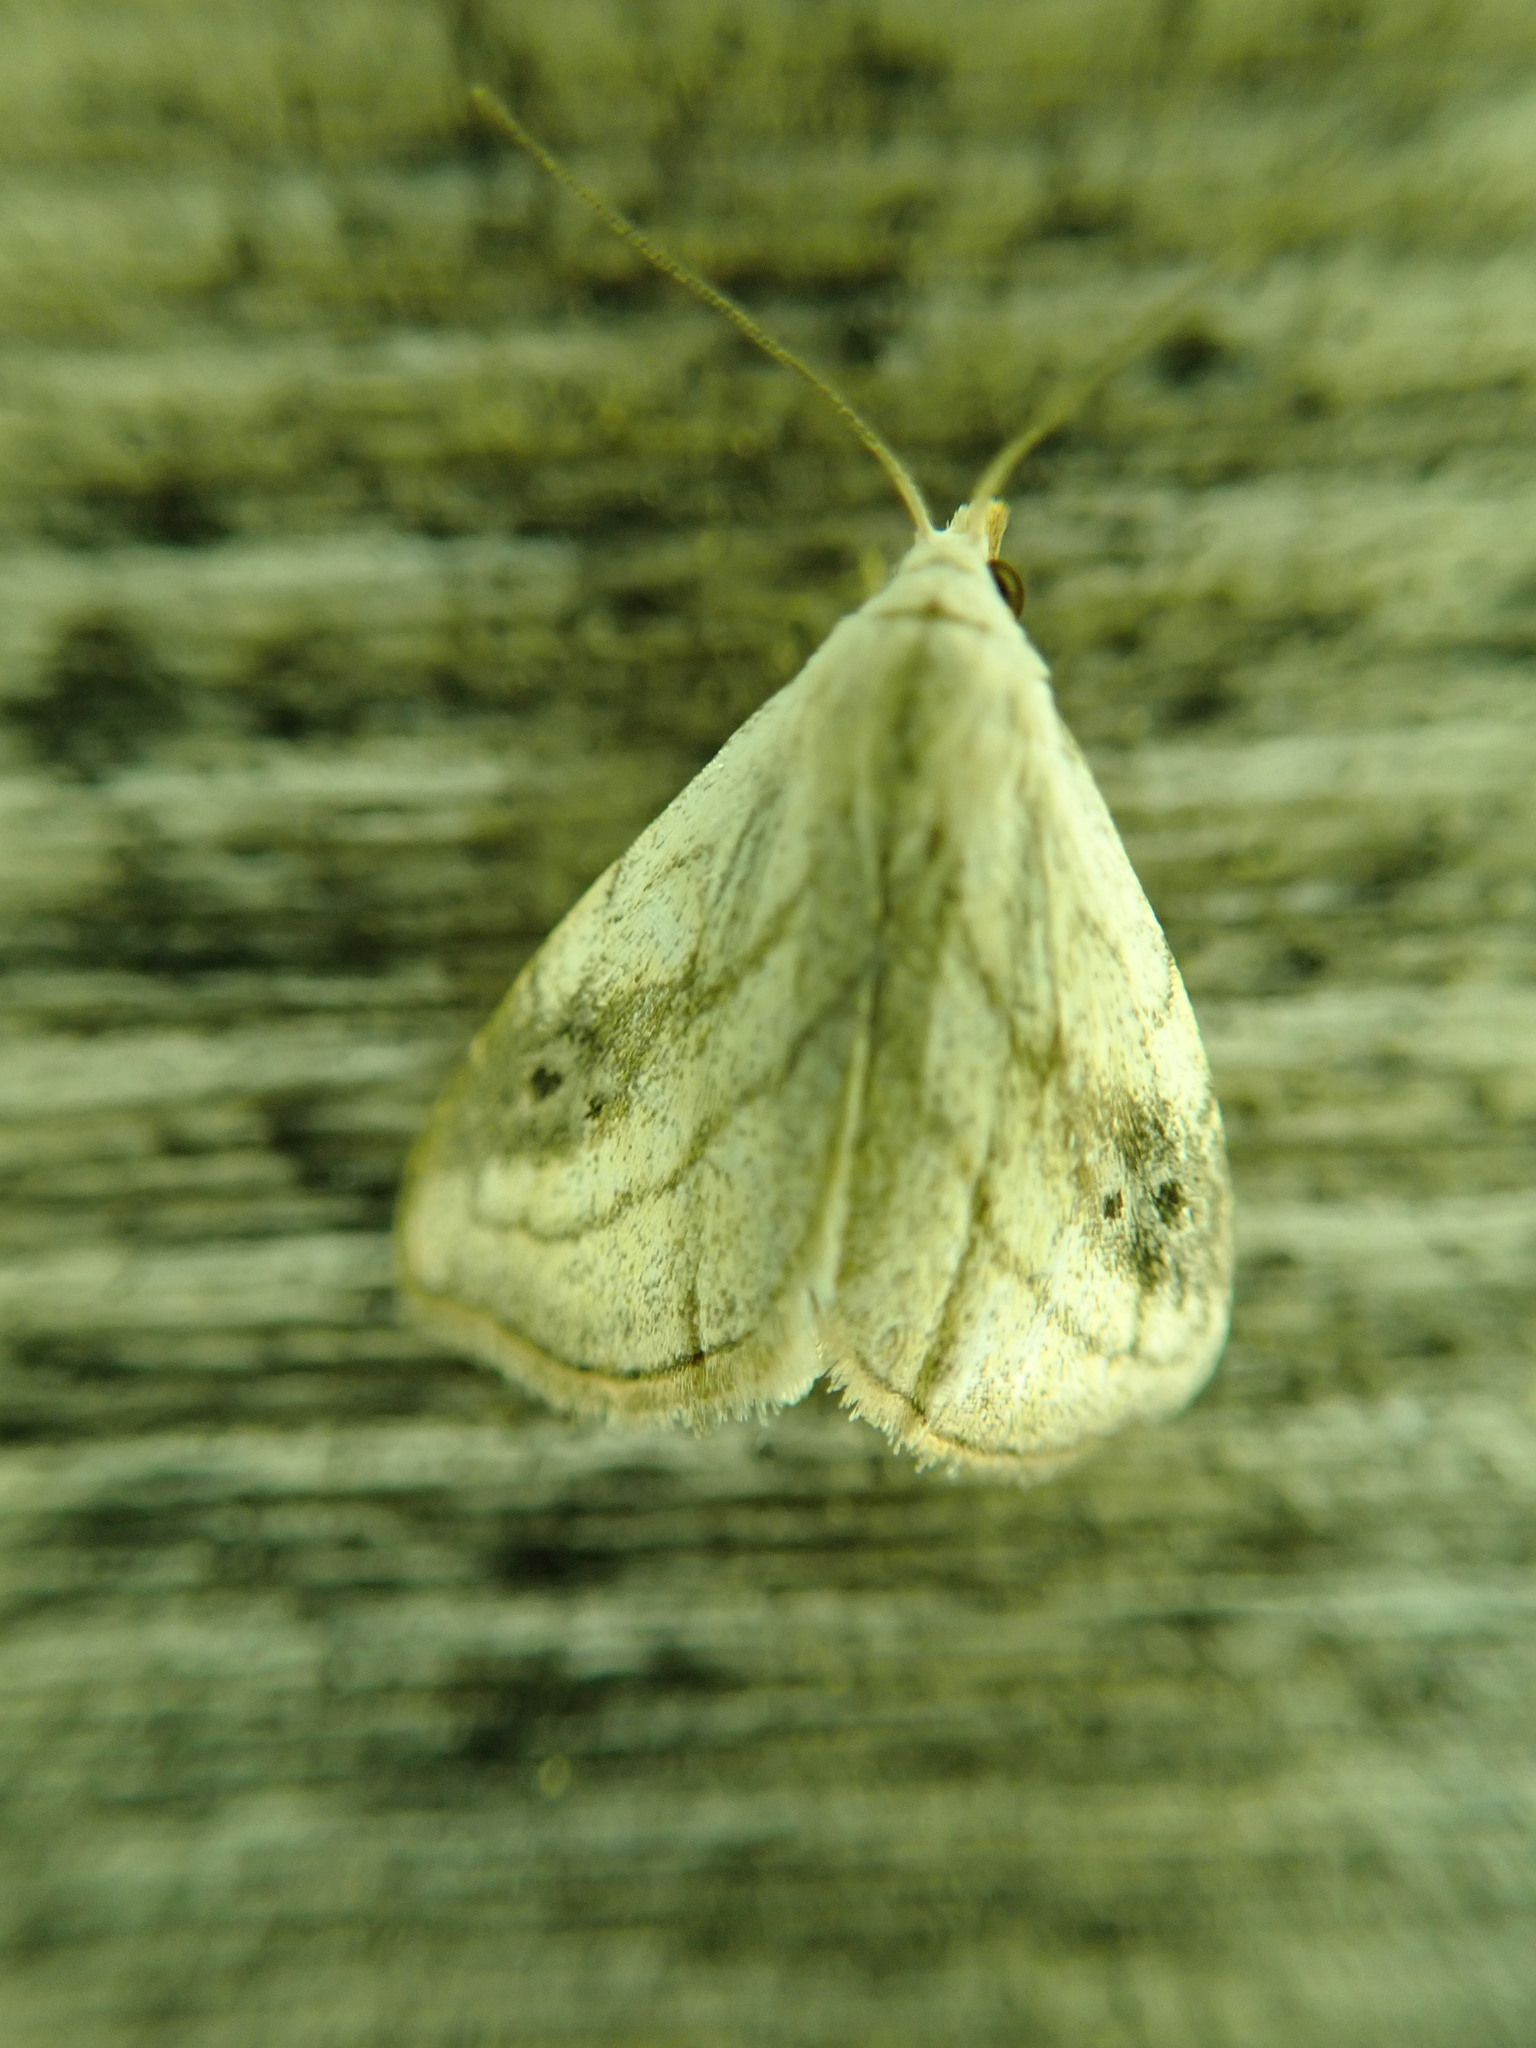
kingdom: Animalia
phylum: Arthropoda
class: Insecta
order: Lepidoptera
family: Erebidae
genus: Rivula
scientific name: Rivula propinqualis
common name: Spotted grass moth
